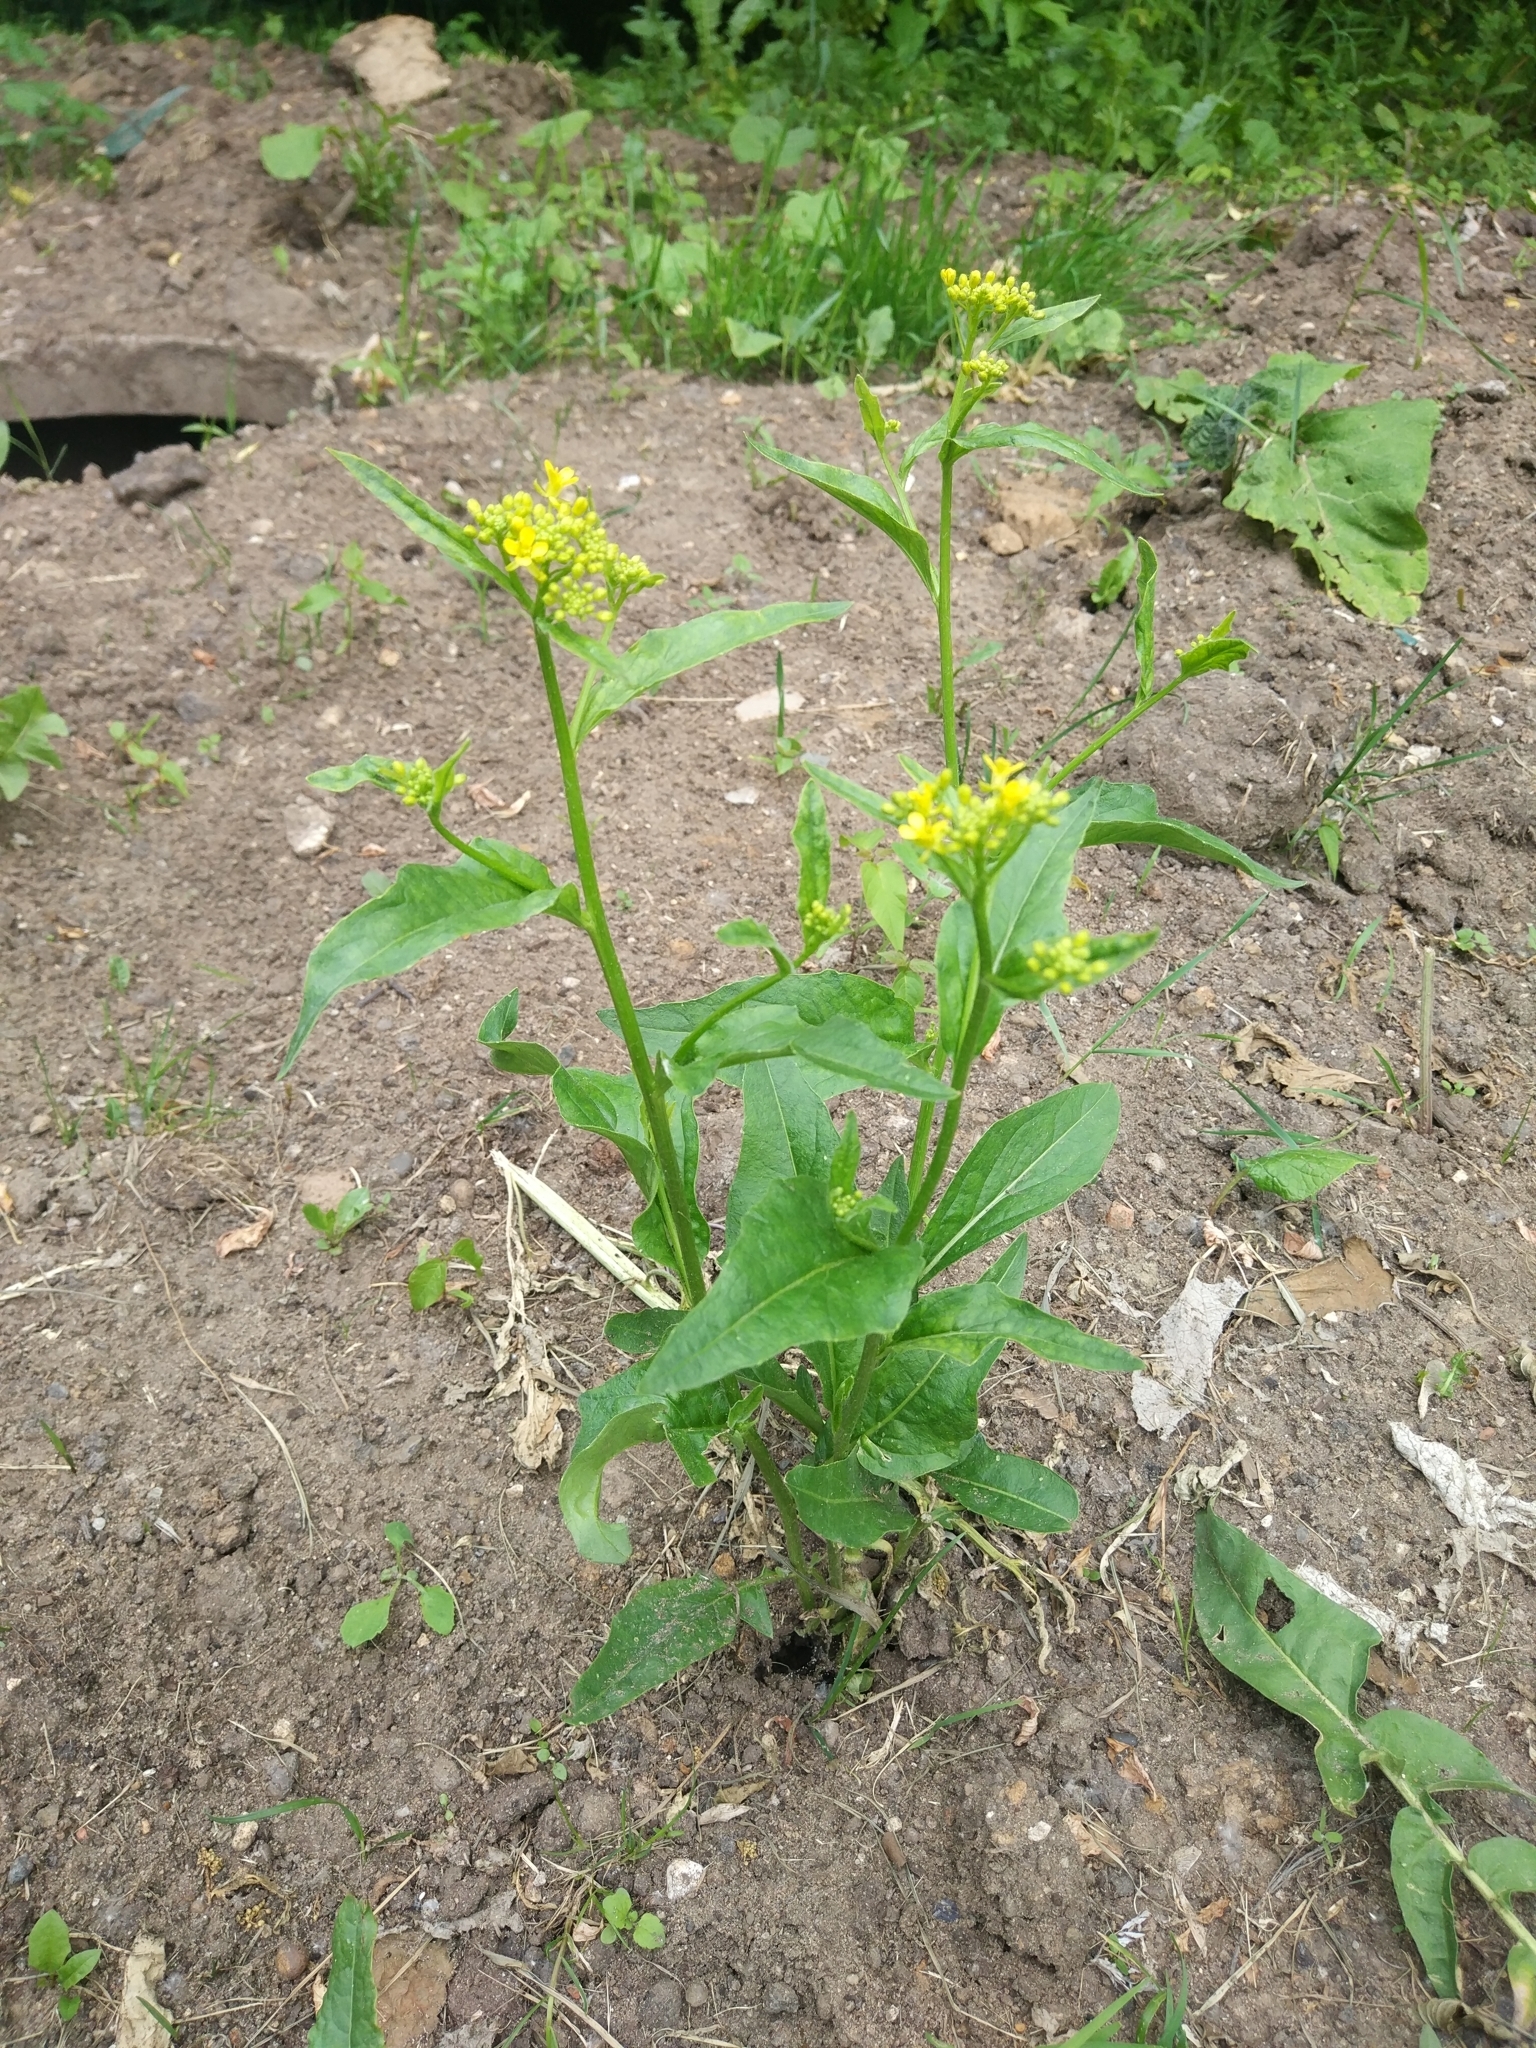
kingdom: Plantae
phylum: Tracheophyta
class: Magnoliopsida
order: Brassicales
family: Brassicaceae
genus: Bunias
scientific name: Bunias orientalis
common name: Warty-cabbage
